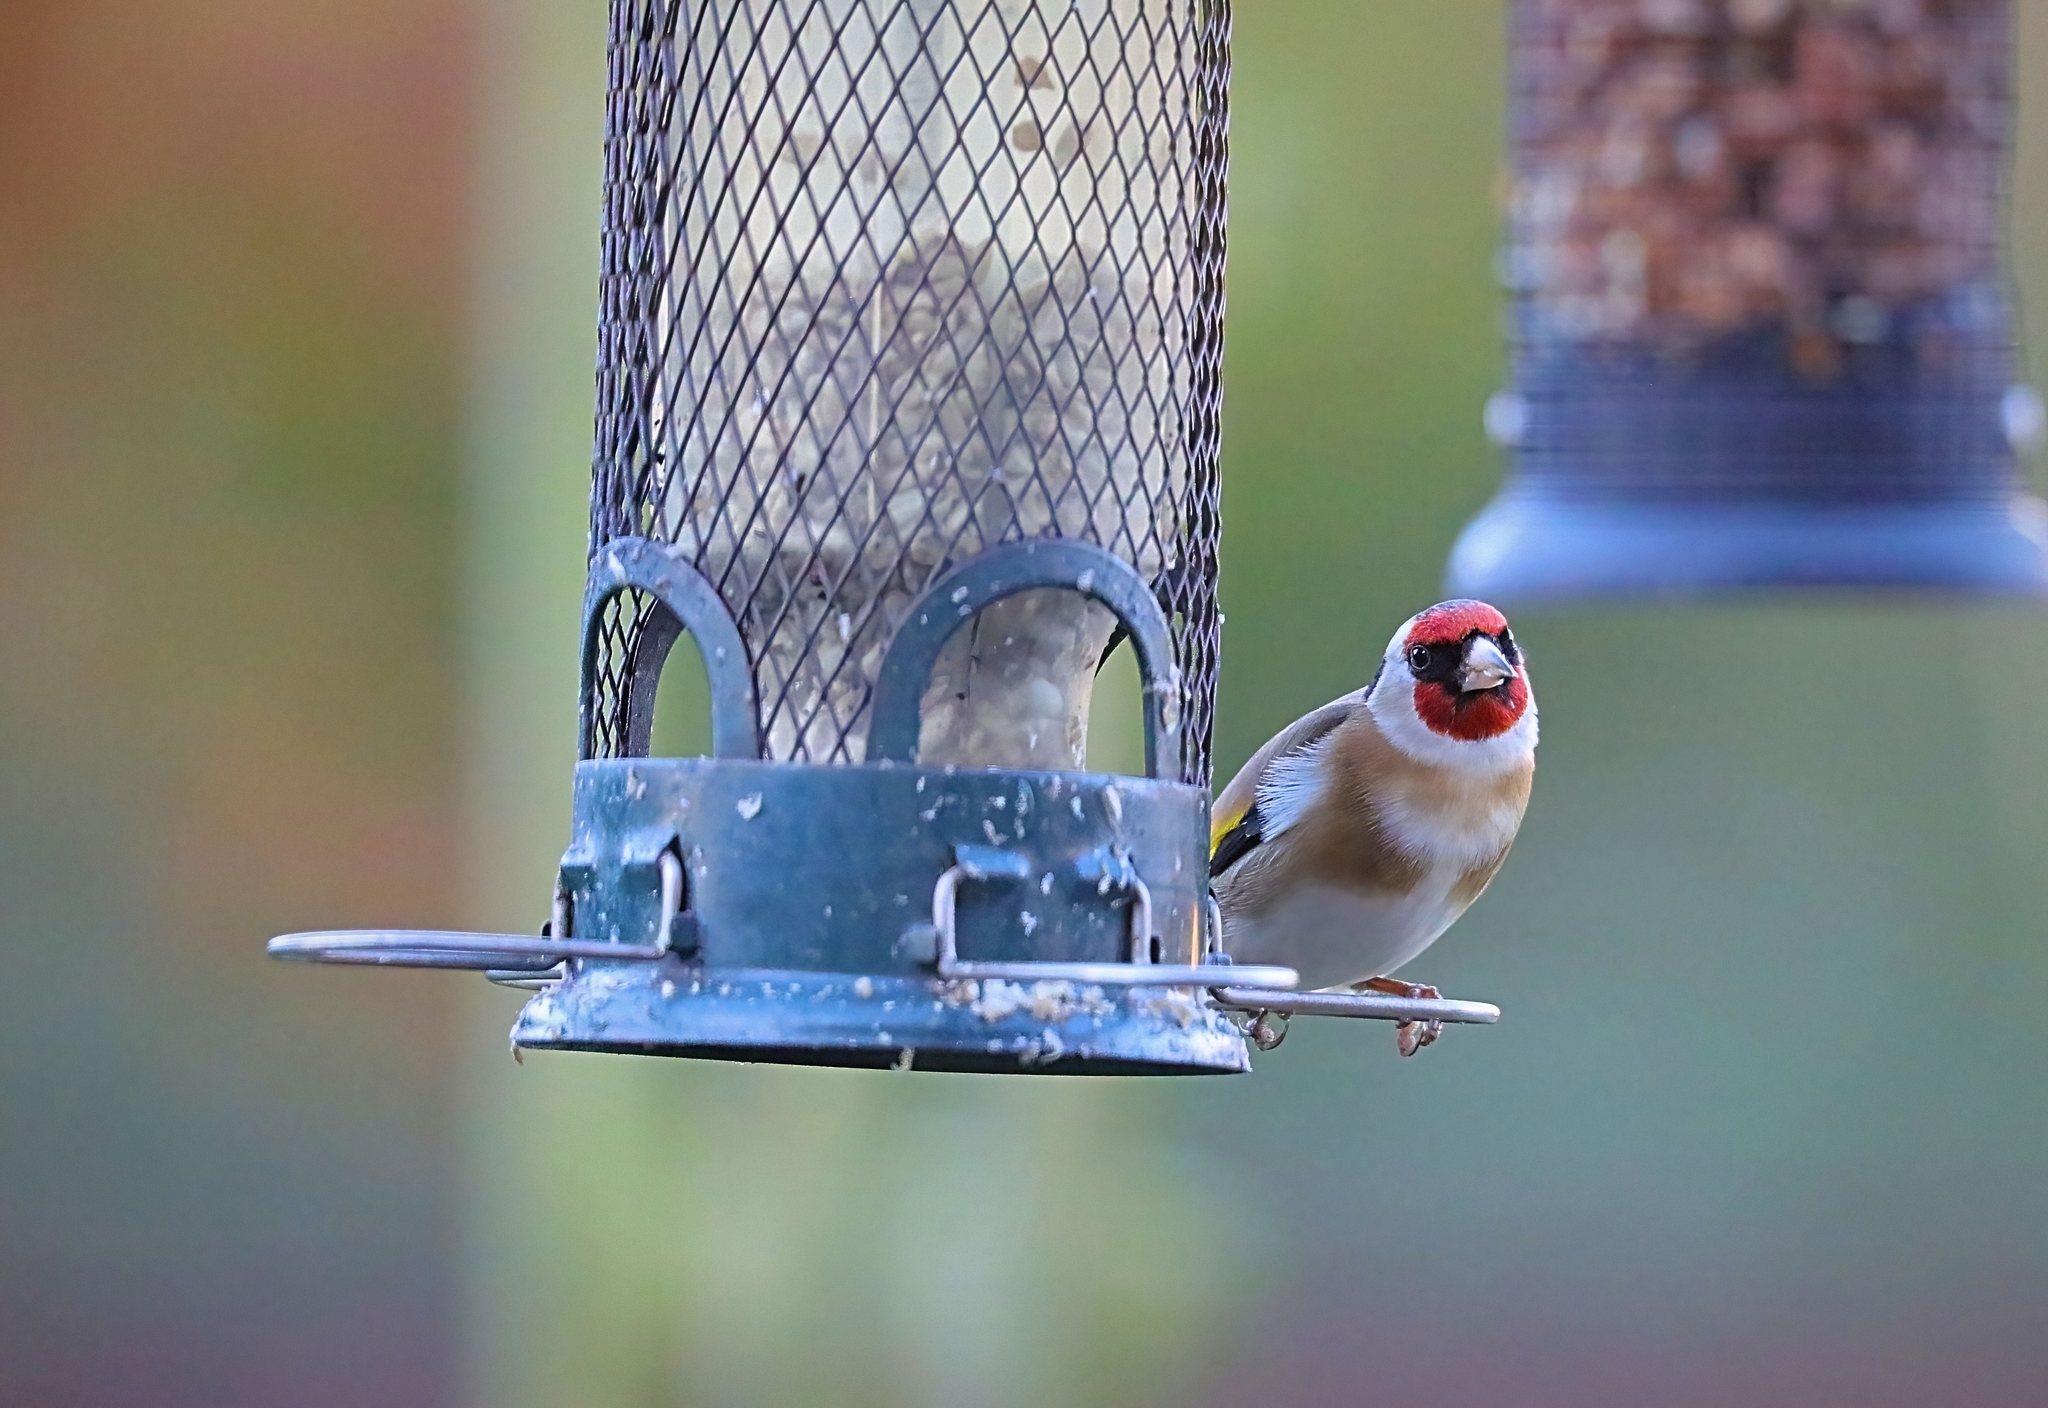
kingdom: Animalia
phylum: Chordata
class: Aves
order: Passeriformes
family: Fringillidae
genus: Carduelis
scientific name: Carduelis carduelis
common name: European goldfinch
